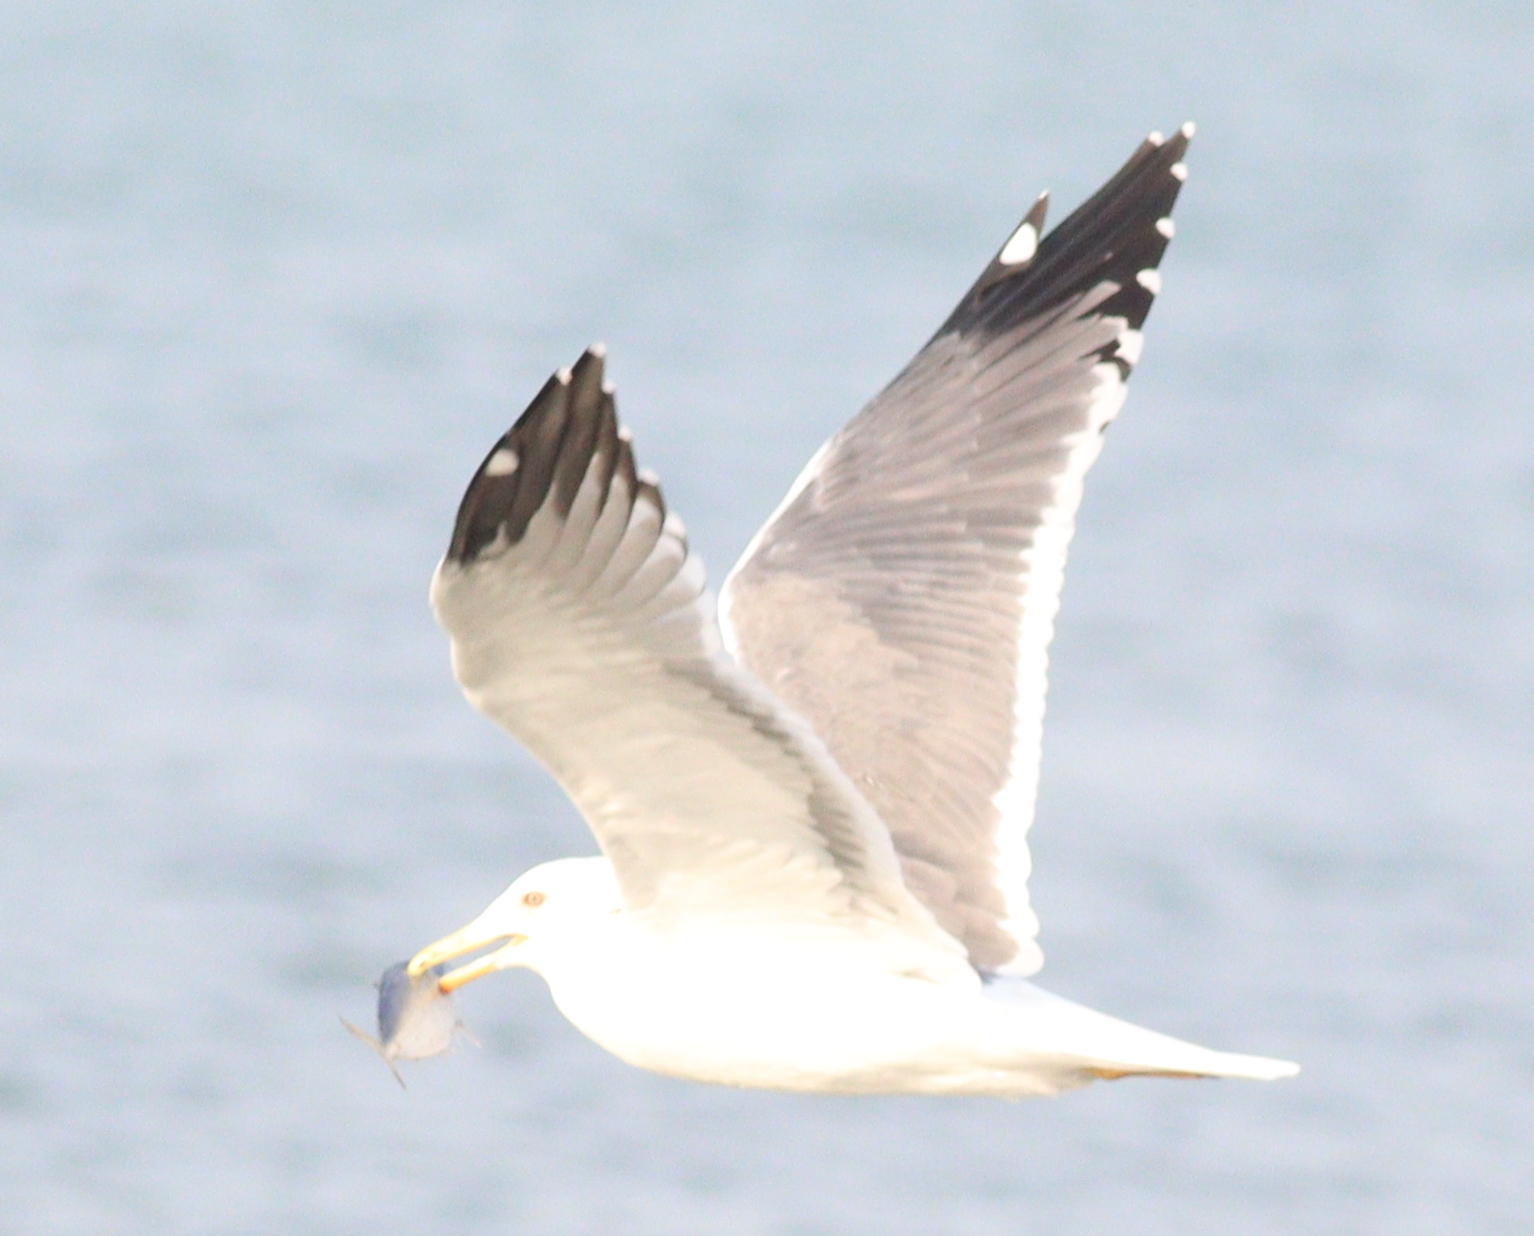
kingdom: Animalia
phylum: Chordata
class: Aves
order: Charadriiformes
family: Laridae
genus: Larus
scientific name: Larus fuscus
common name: Lesser black-backed gull
